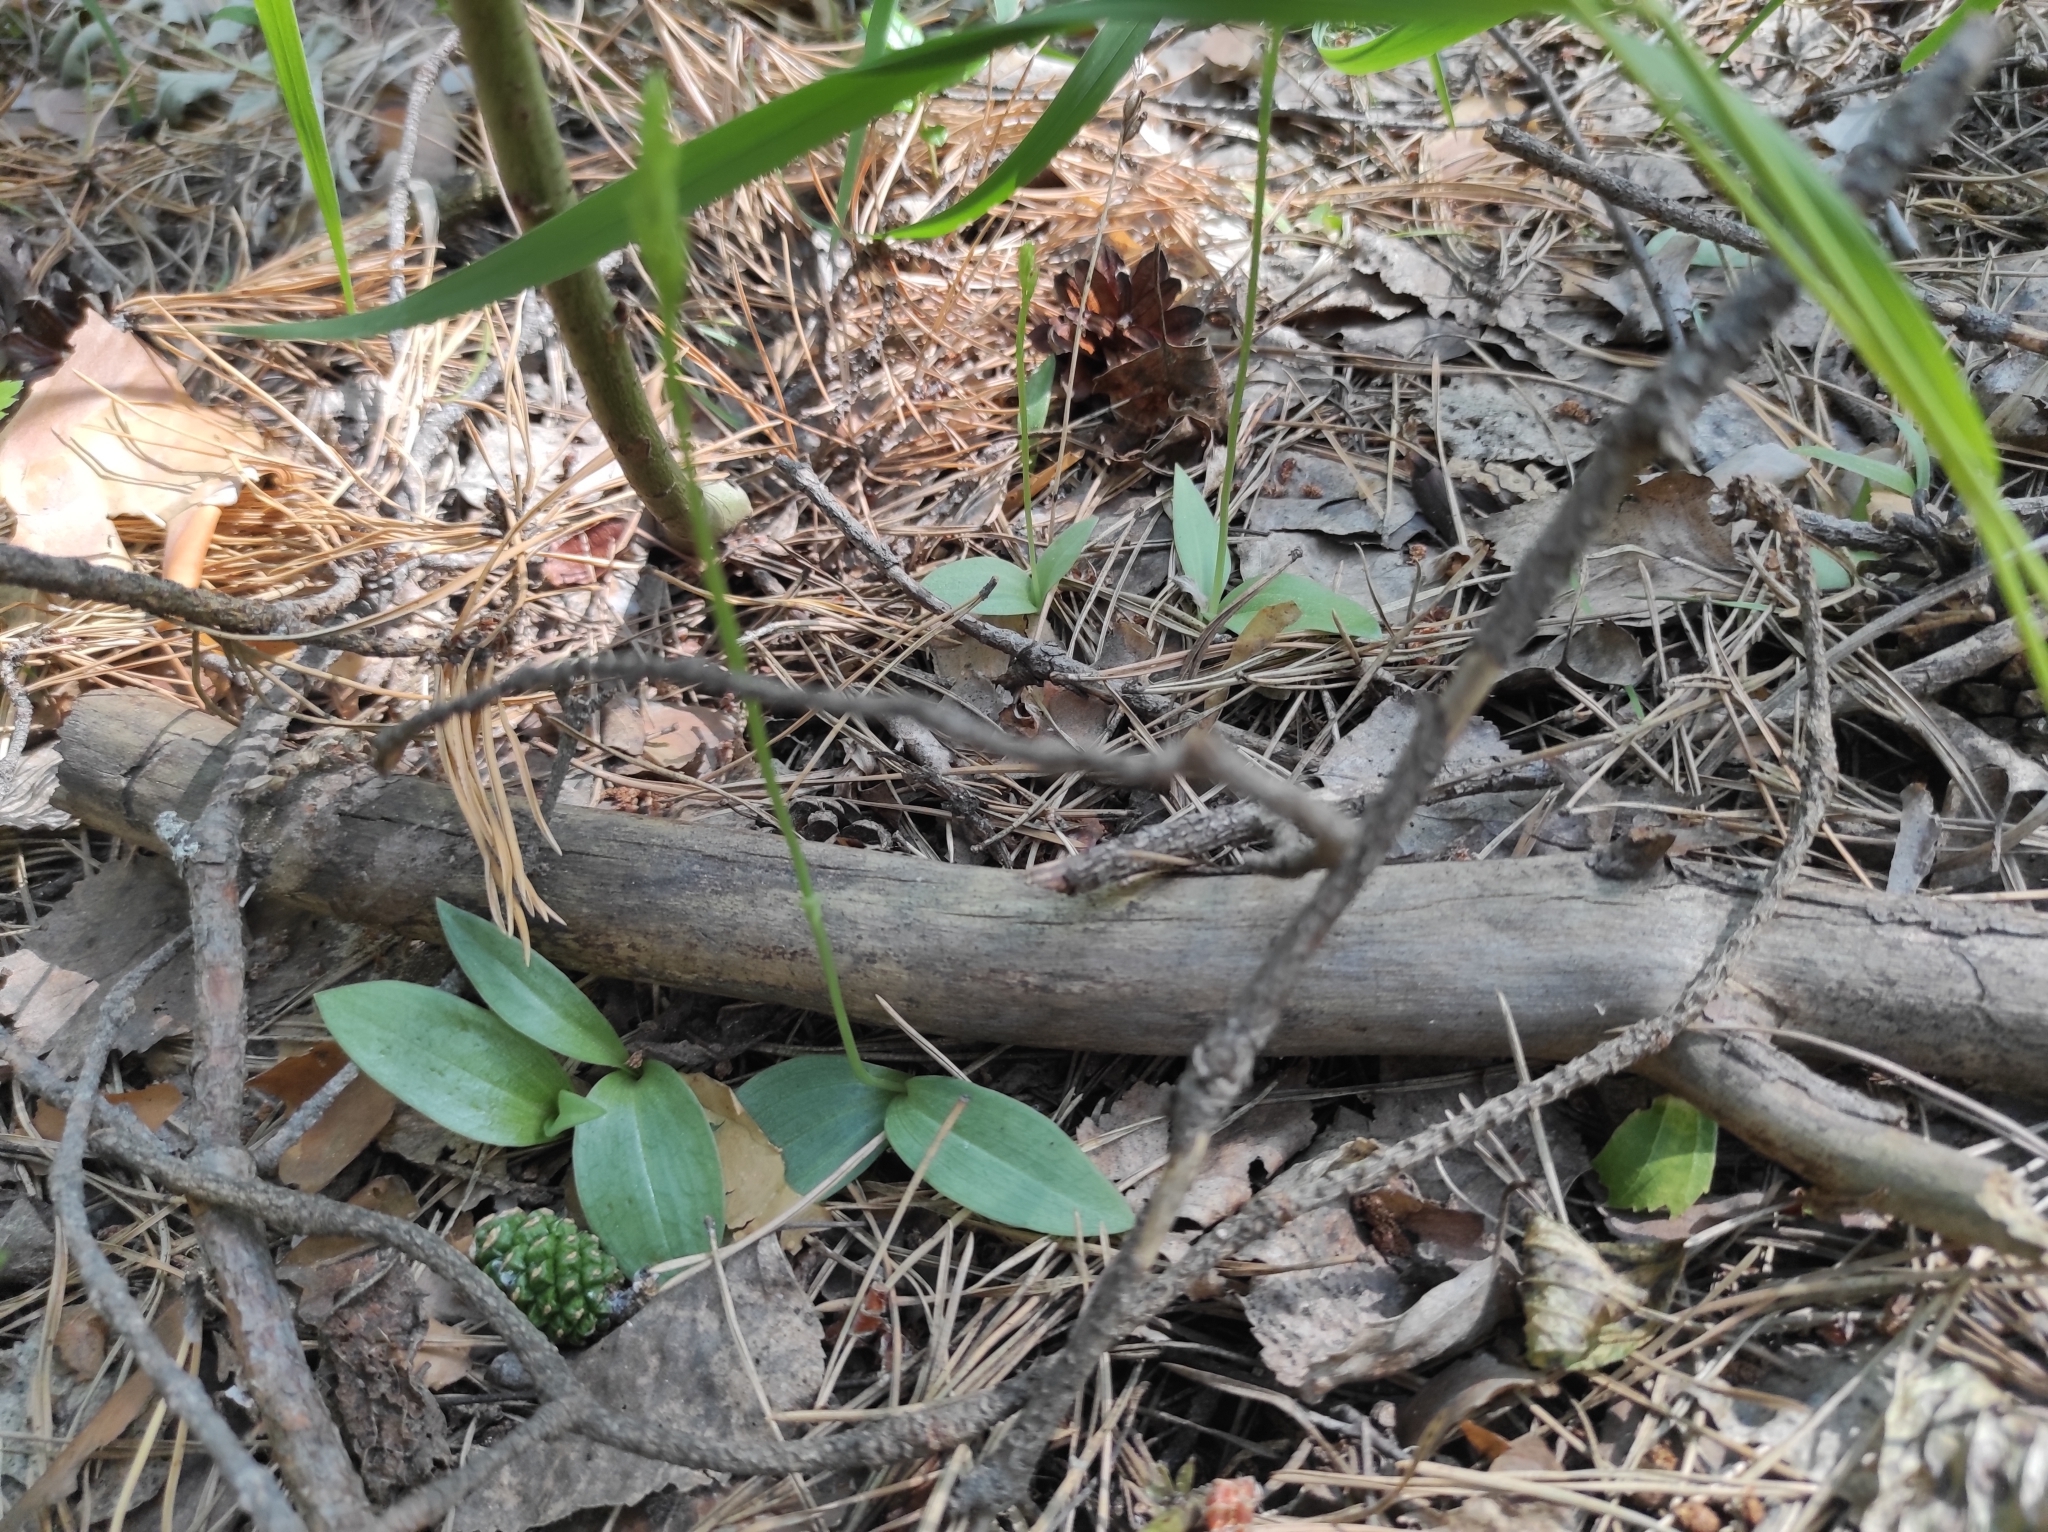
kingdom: Plantae
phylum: Tracheophyta
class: Liliopsida
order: Asparagales
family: Orchidaceae
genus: Hemipilia
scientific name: Hemipilia cucullata
